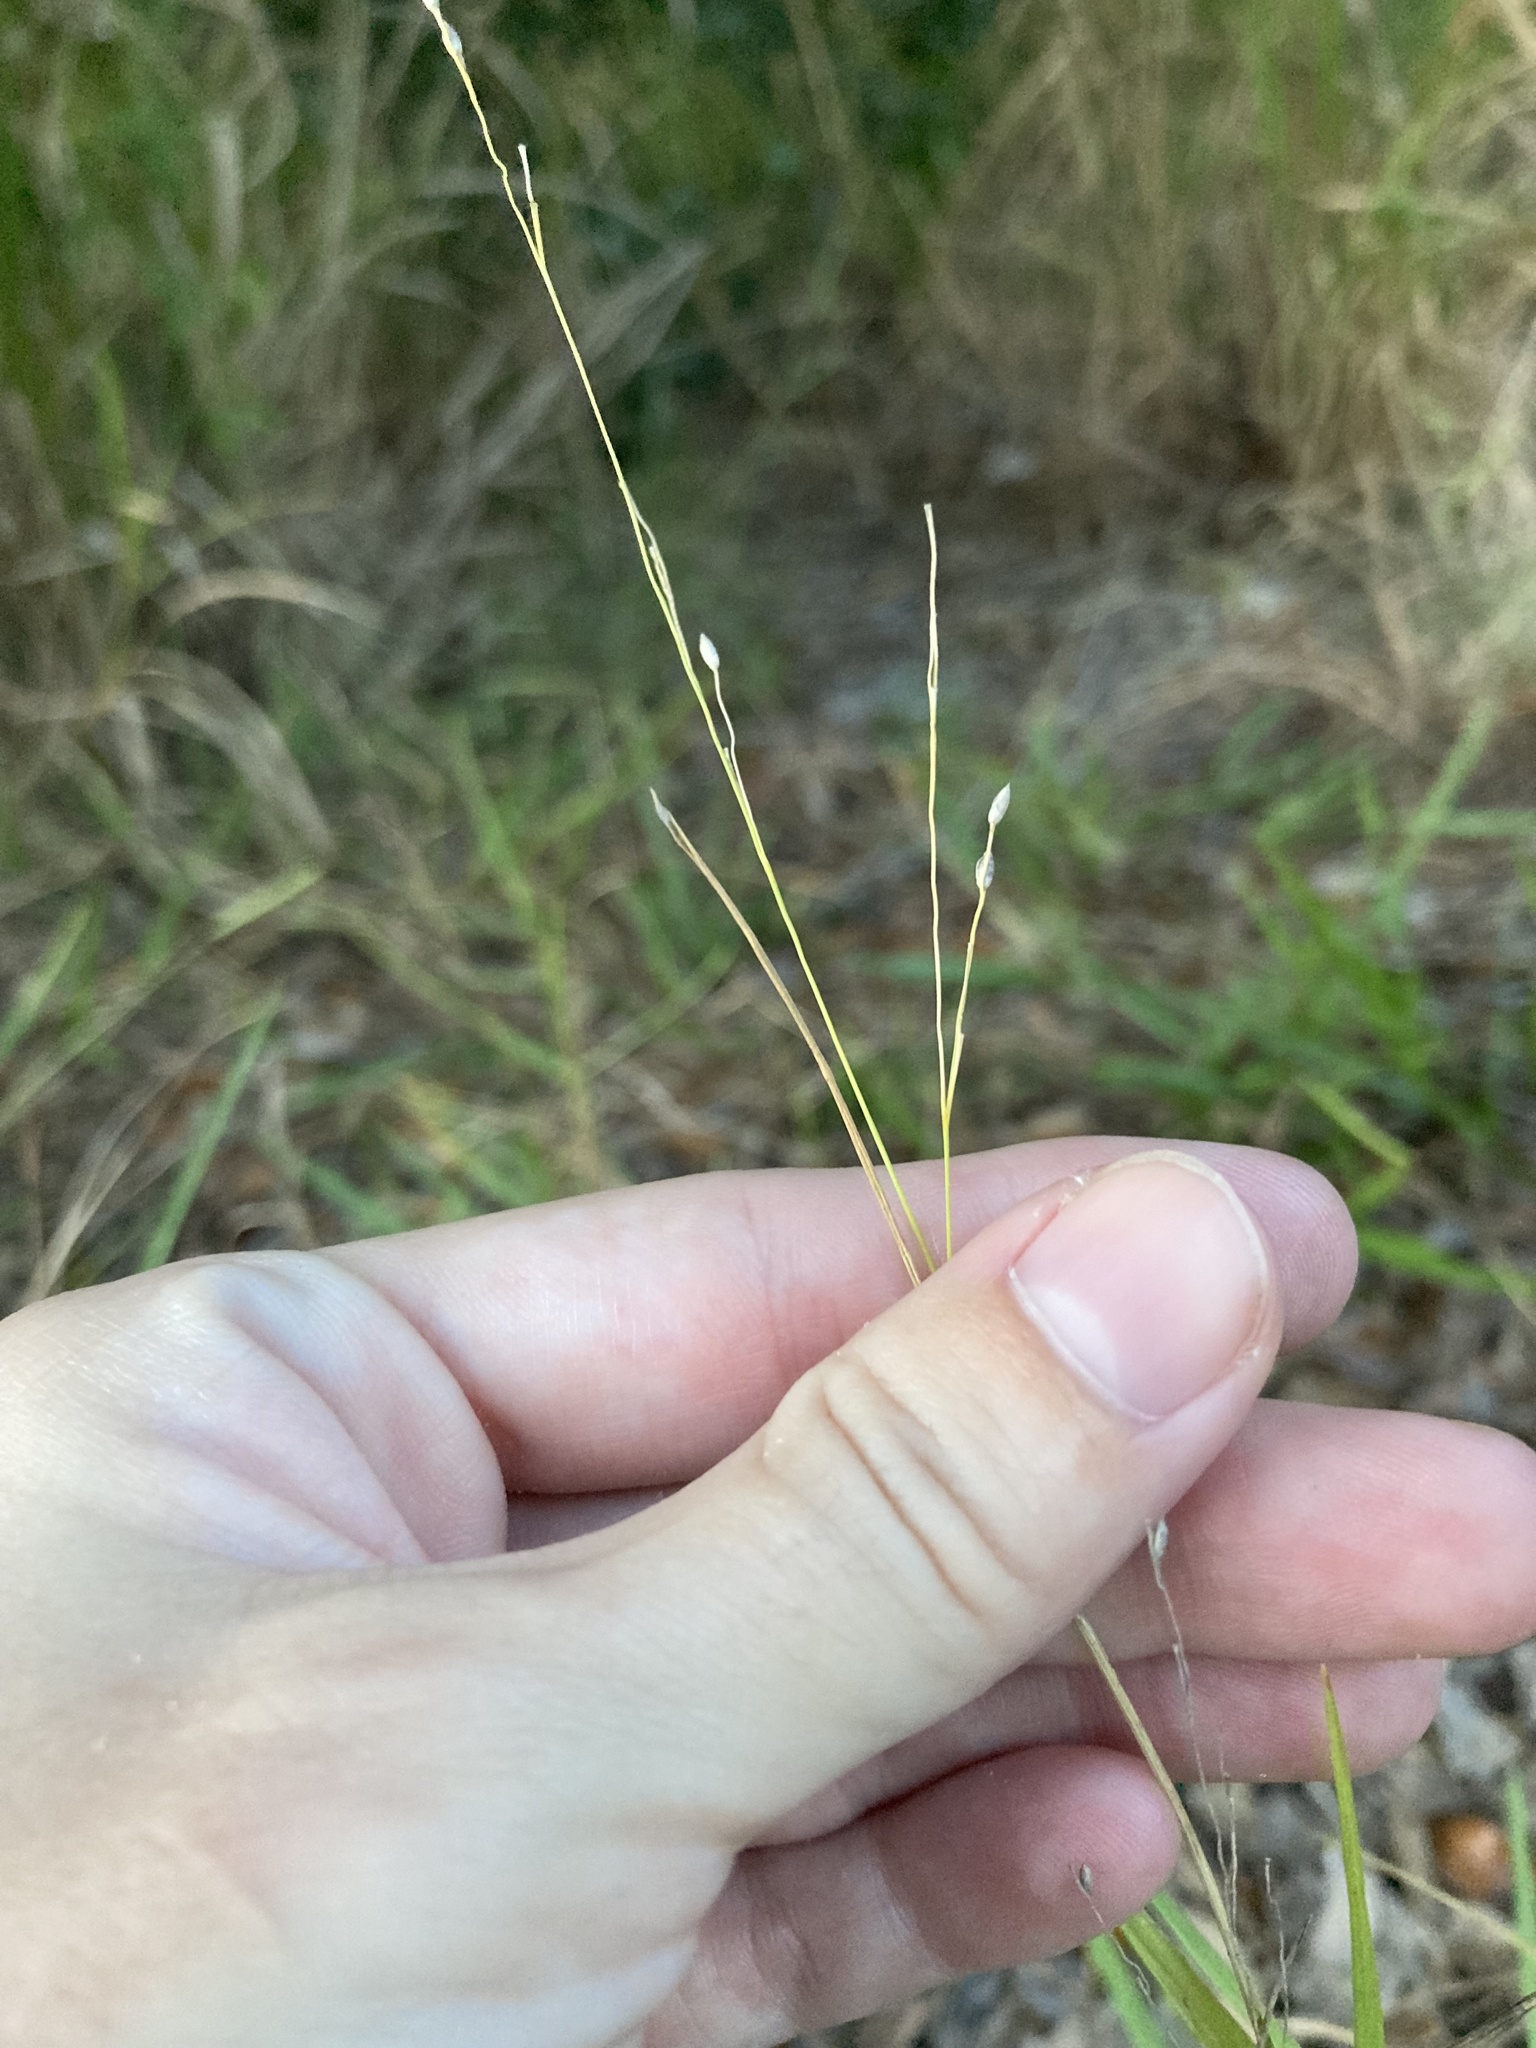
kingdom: Plantae
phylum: Tracheophyta
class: Liliopsida
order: Poales
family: Poaceae
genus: Panicum
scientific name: Panicum repens
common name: Torpedo grass
